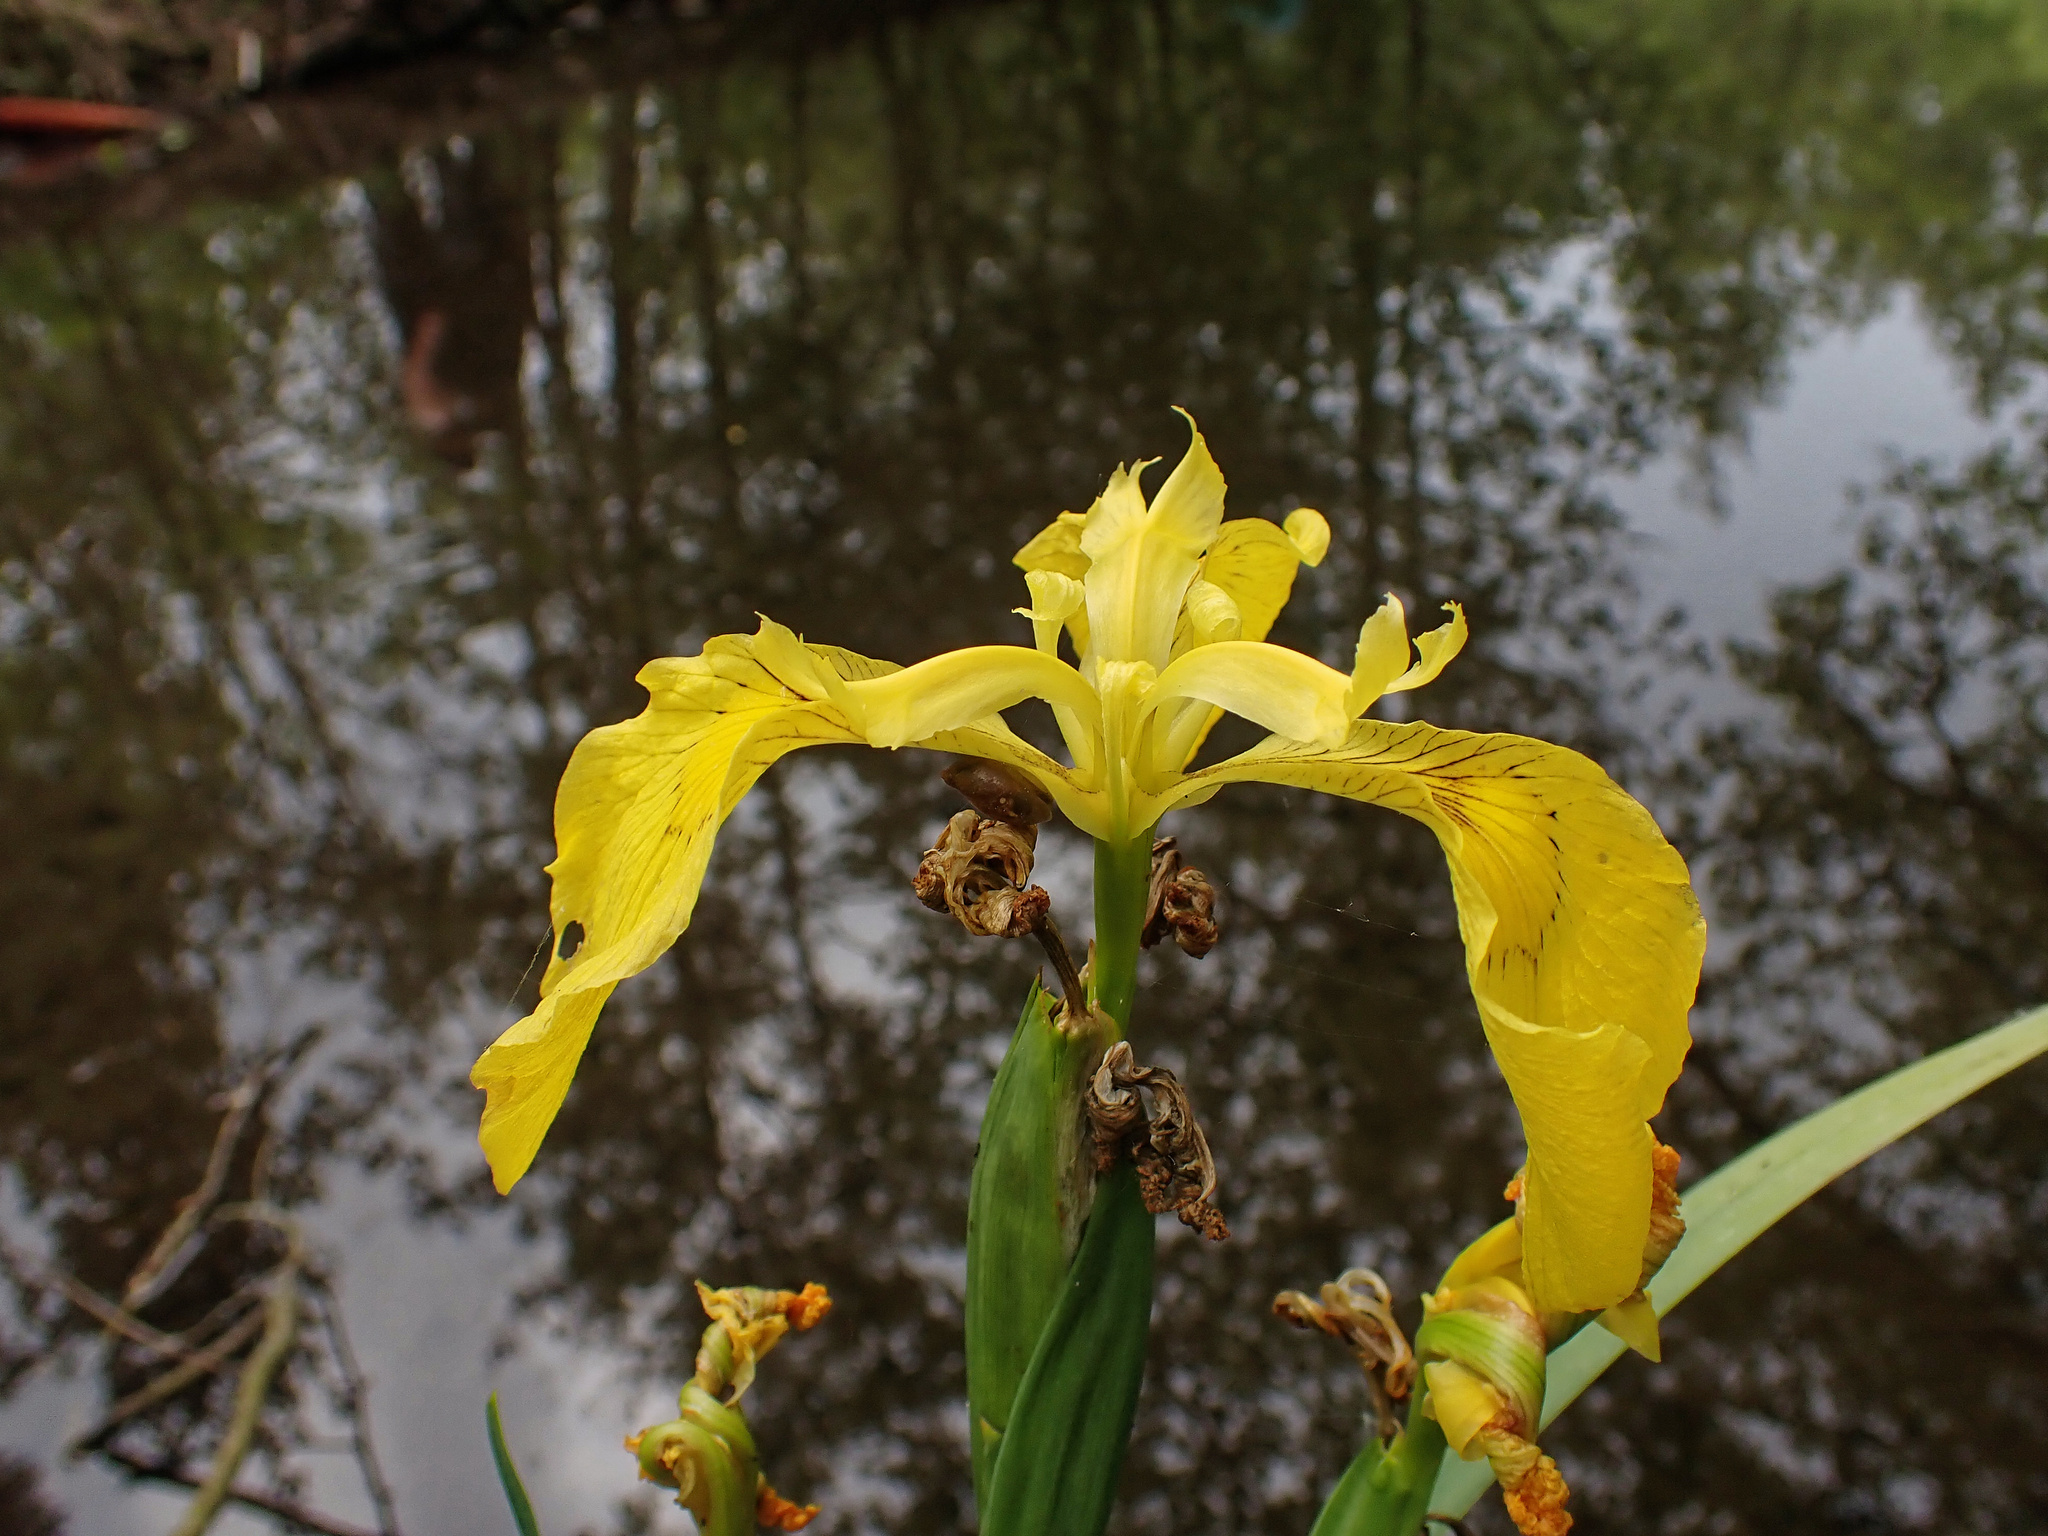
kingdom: Plantae
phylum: Tracheophyta
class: Liliopsida
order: Asparagales
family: Iridaceae
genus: Iris
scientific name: Iris pseudacorus
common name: Yellow flag
